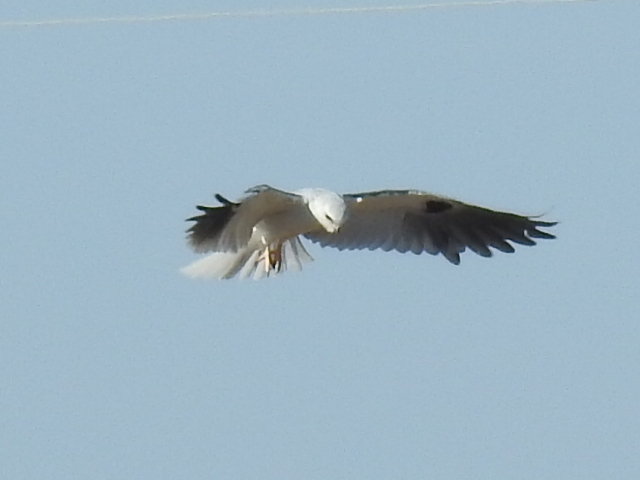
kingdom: Animalia
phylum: Chordata
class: Aves
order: Accipitriformes
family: Accipitridae
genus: Elanus
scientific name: Elanus leucurus
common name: White-tailed kite
